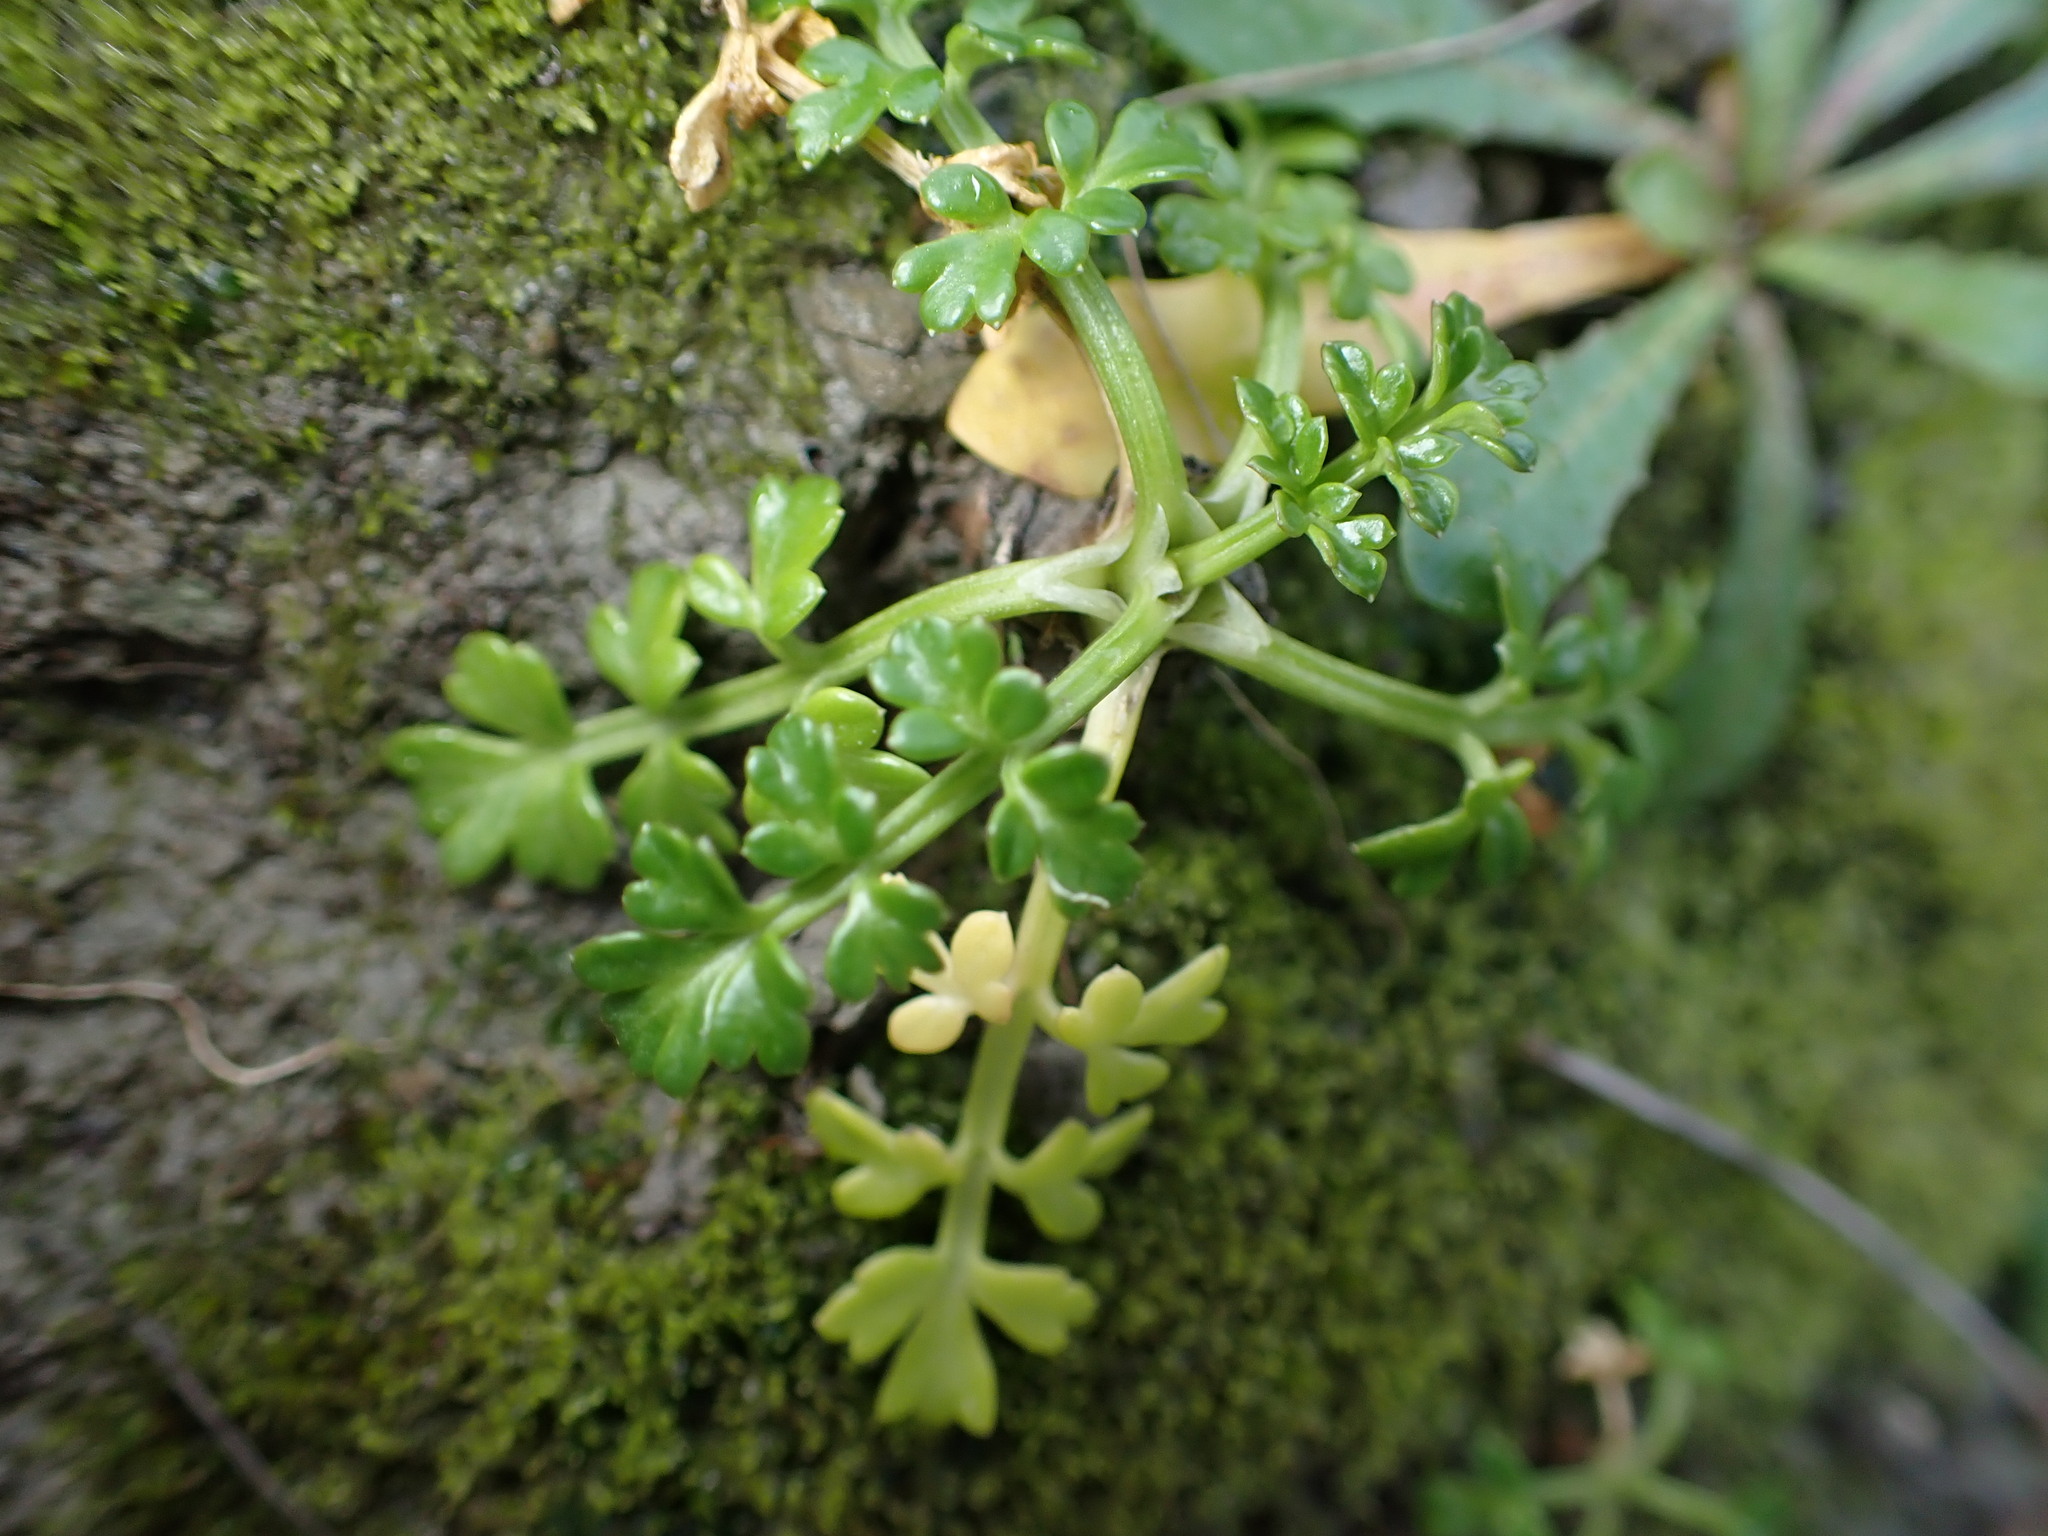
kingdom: Plantae
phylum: Tracheophyta
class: Magnoliopsida
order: Apiales
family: Apiaceae
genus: Apium
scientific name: Apium prostratum
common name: Prostrate marshwort
